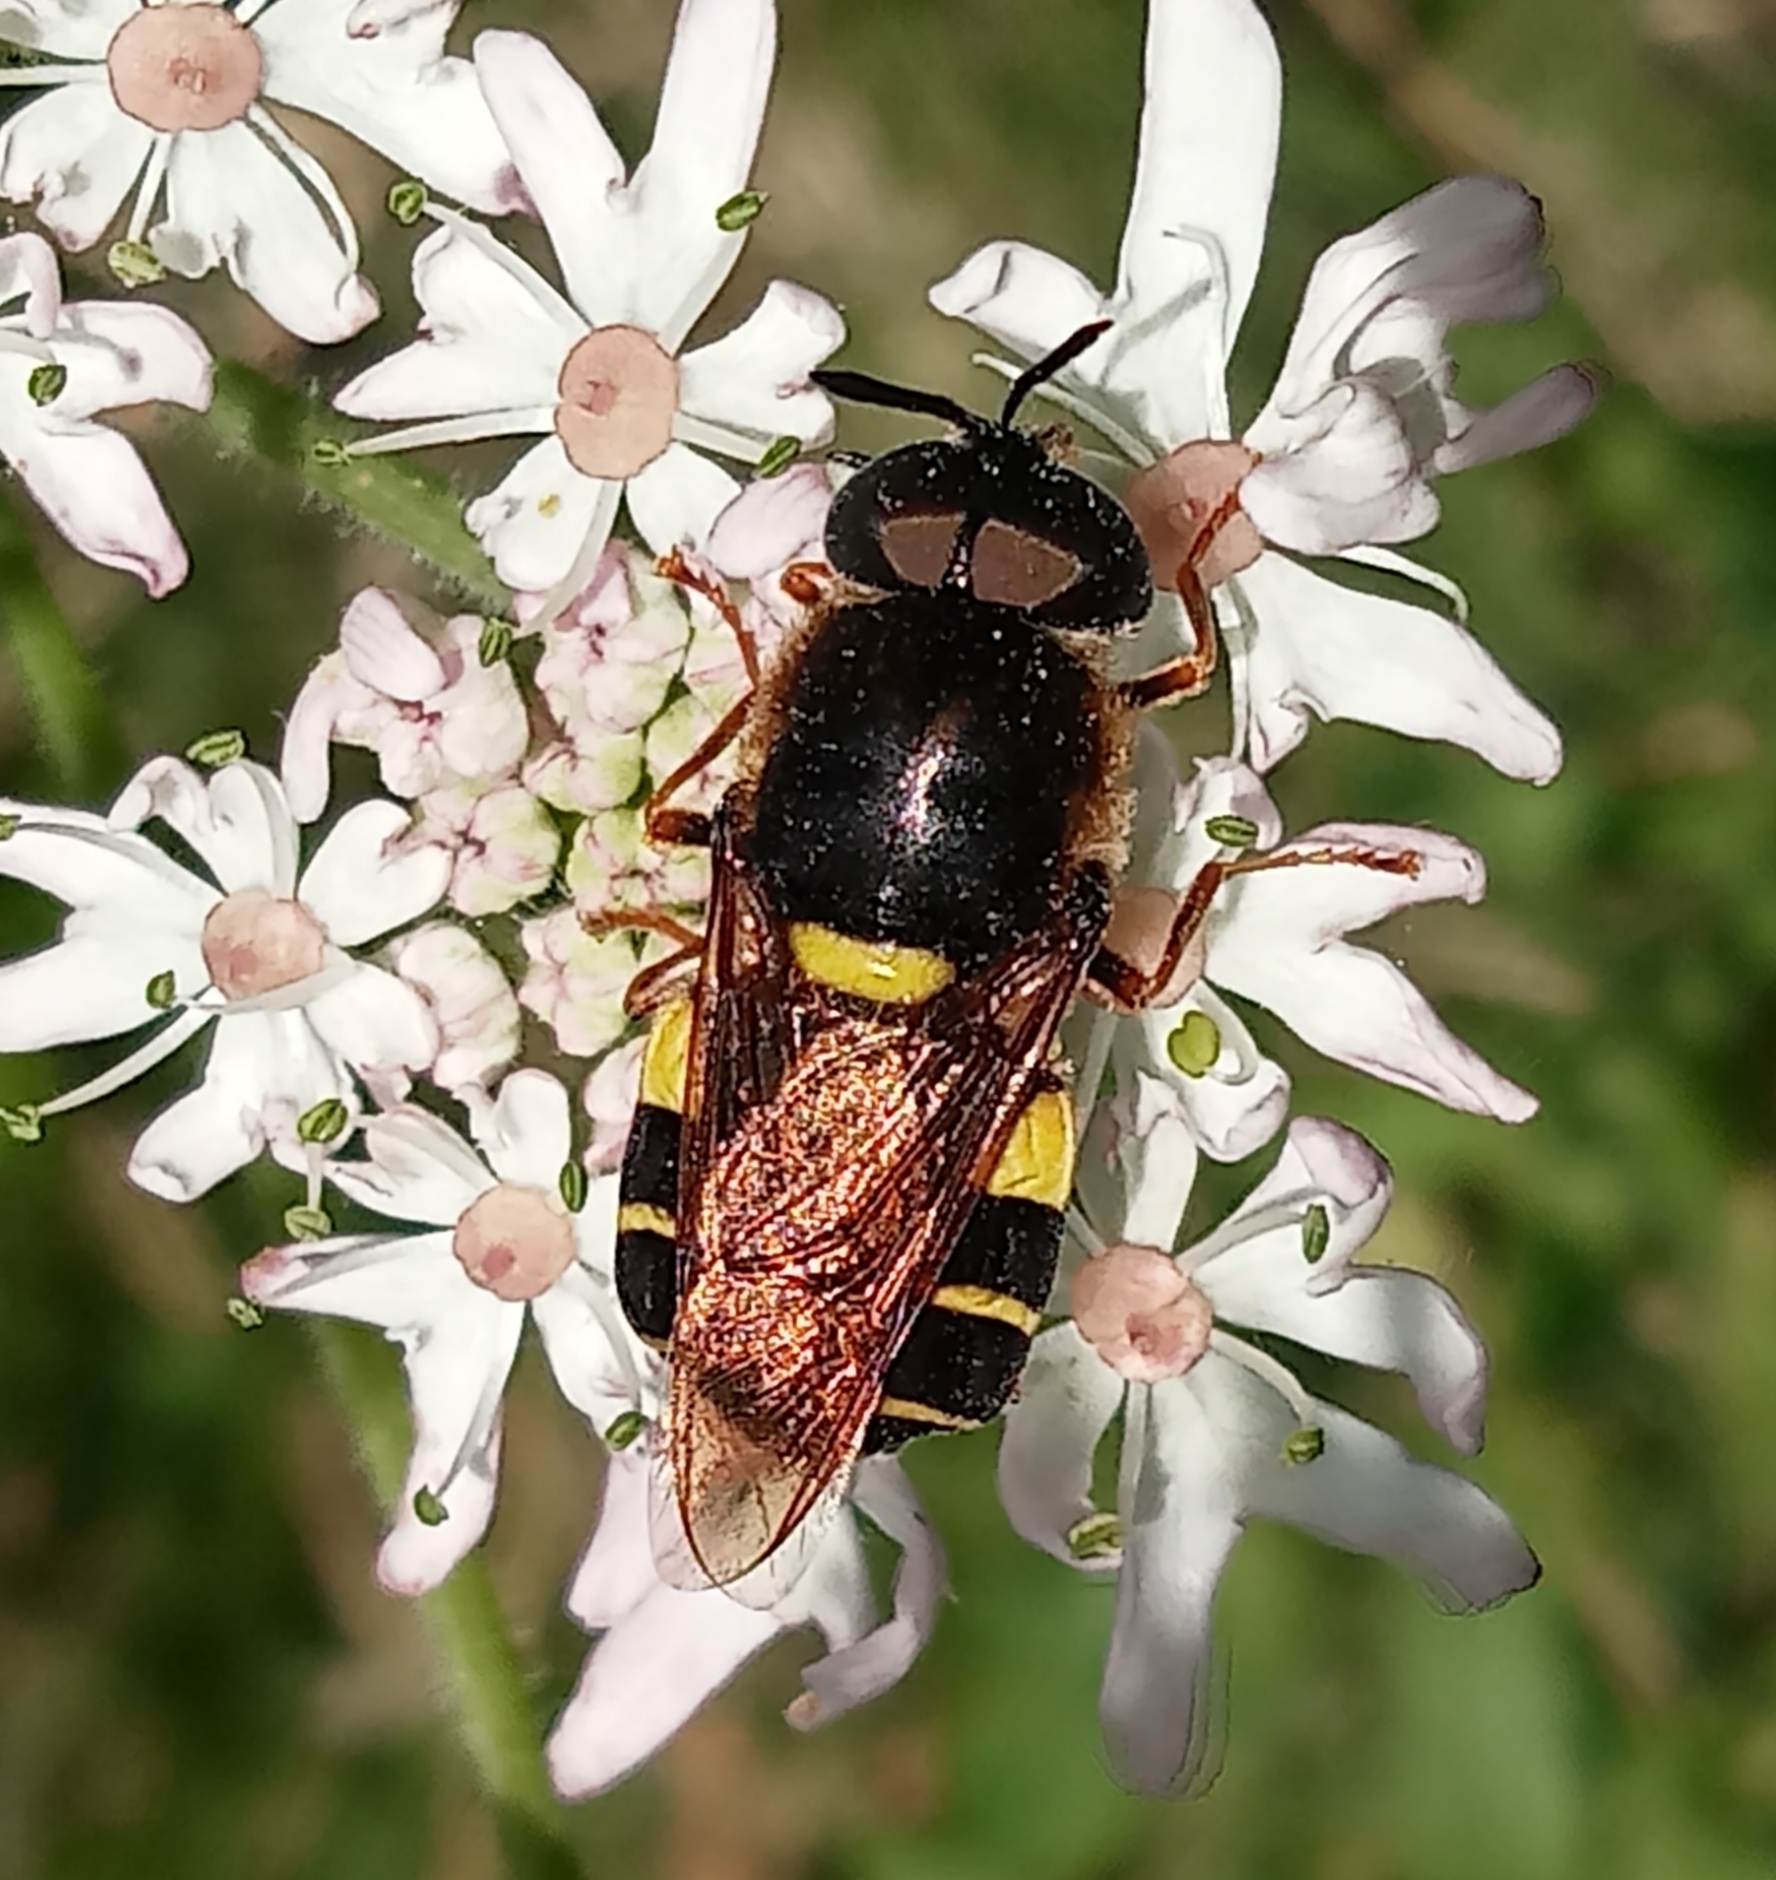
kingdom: Animalia
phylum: Arthropoda
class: Insecta
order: Diptera
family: Stratiomyidae
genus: Stratiomys
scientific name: Stratiomys potamida
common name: Banded general
